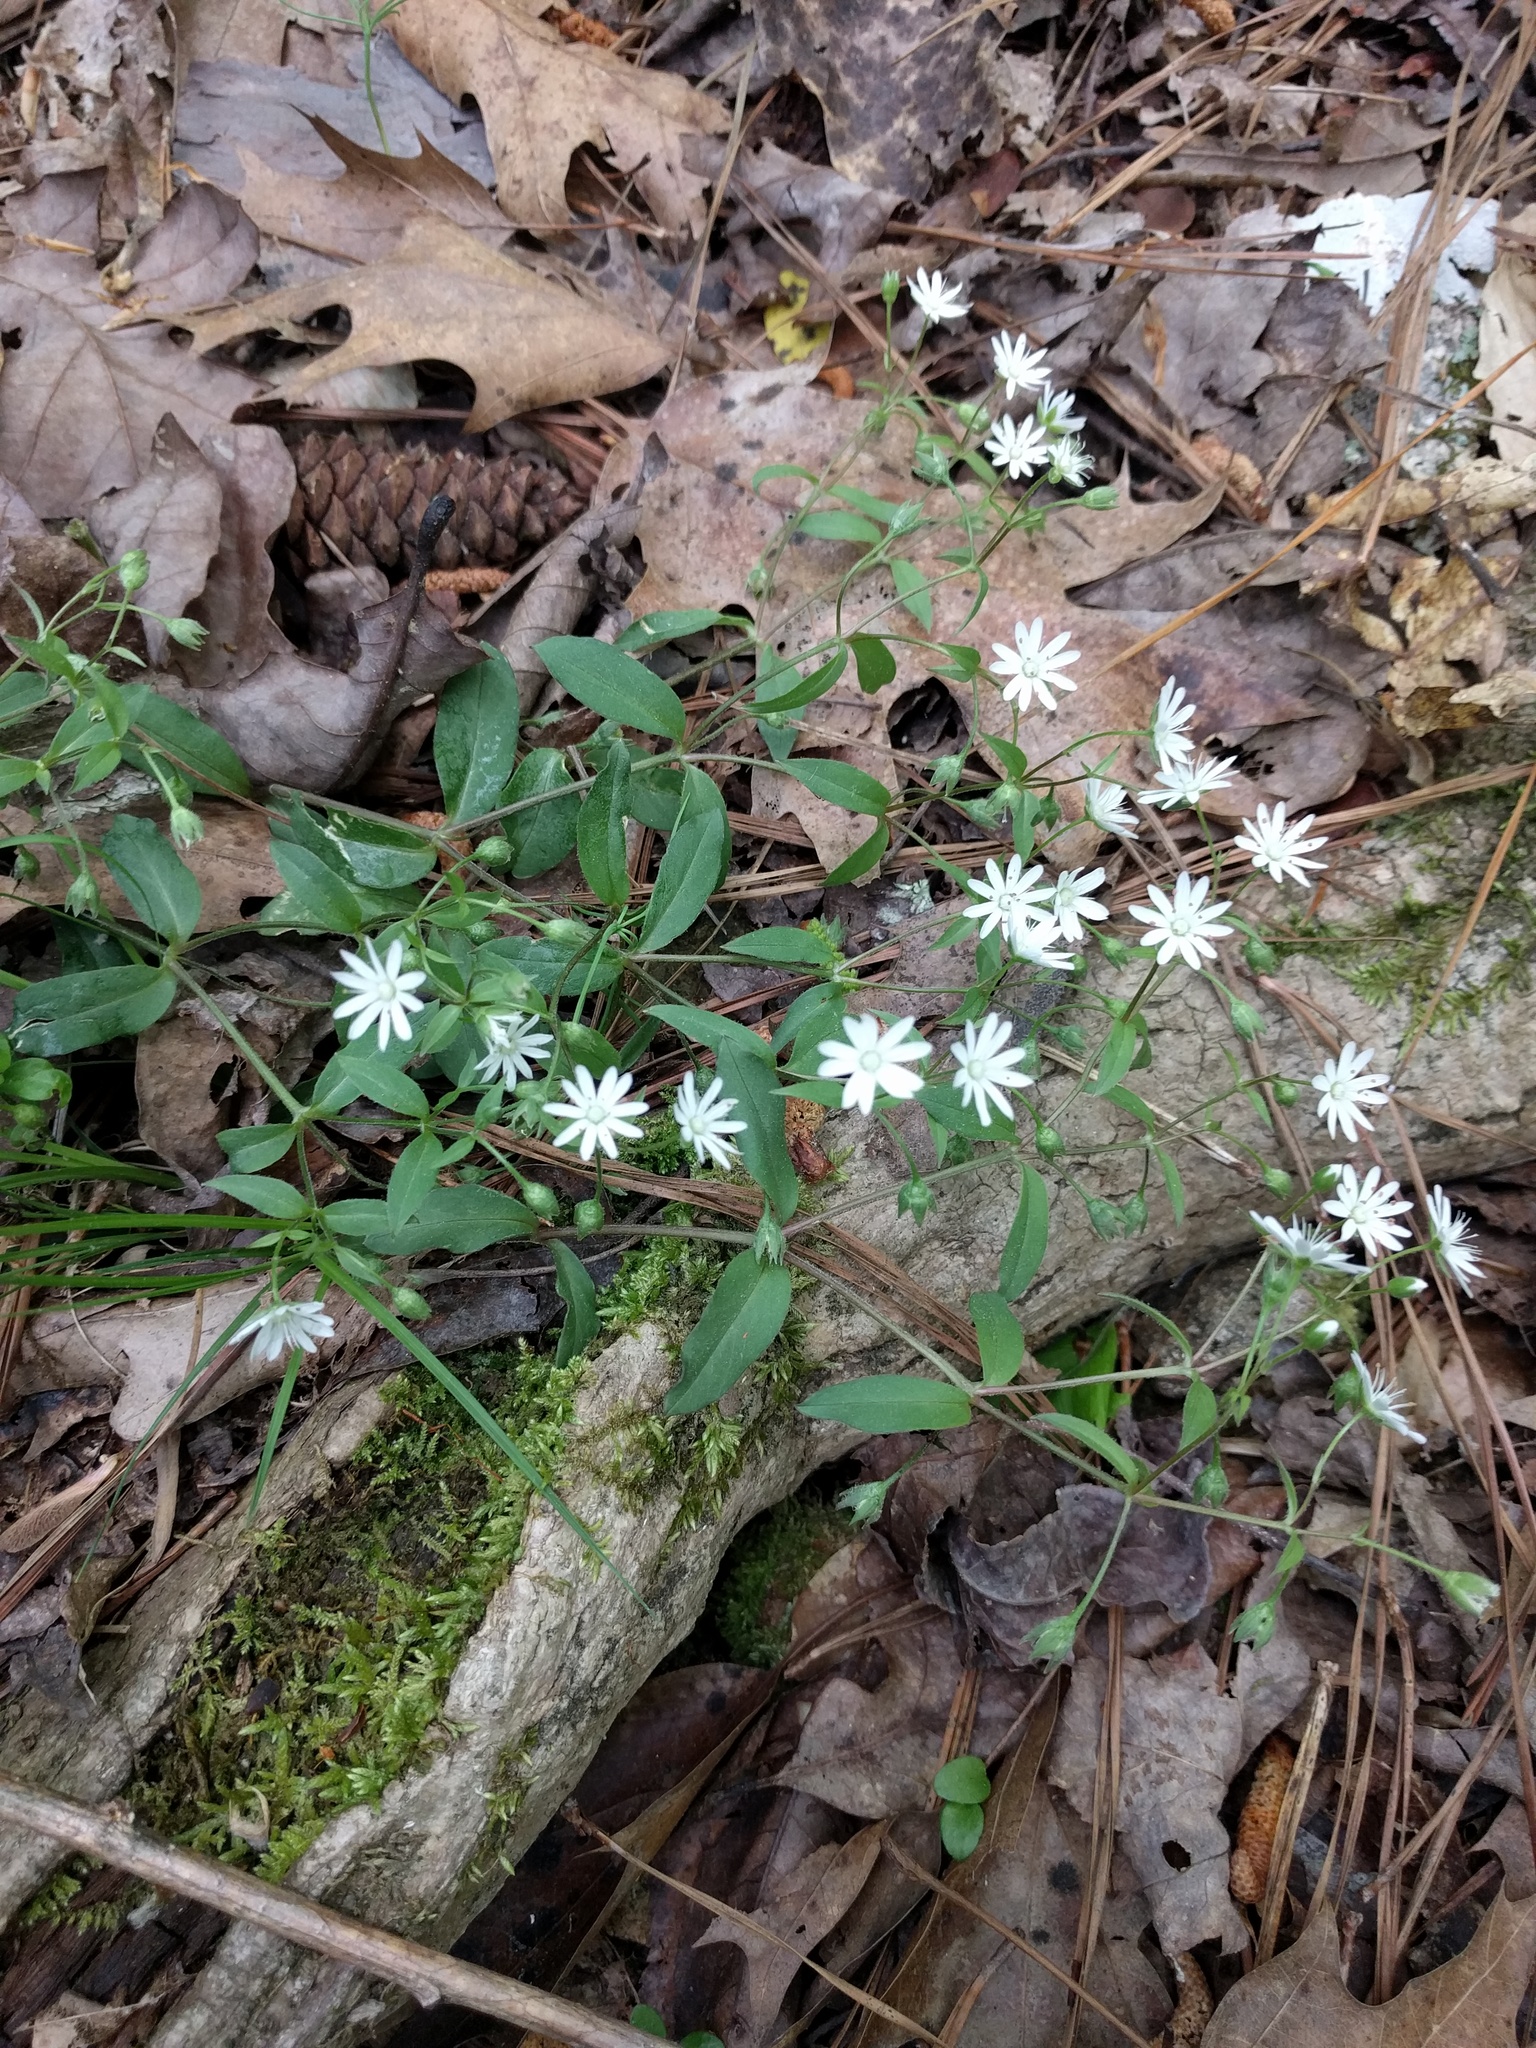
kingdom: Plantae
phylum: Tracheophyta
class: Magnoliopsida
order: Caryophyllales
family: Caryophyllaceae
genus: Stellaria
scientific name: Stellaria pubera
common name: Star chickweed
